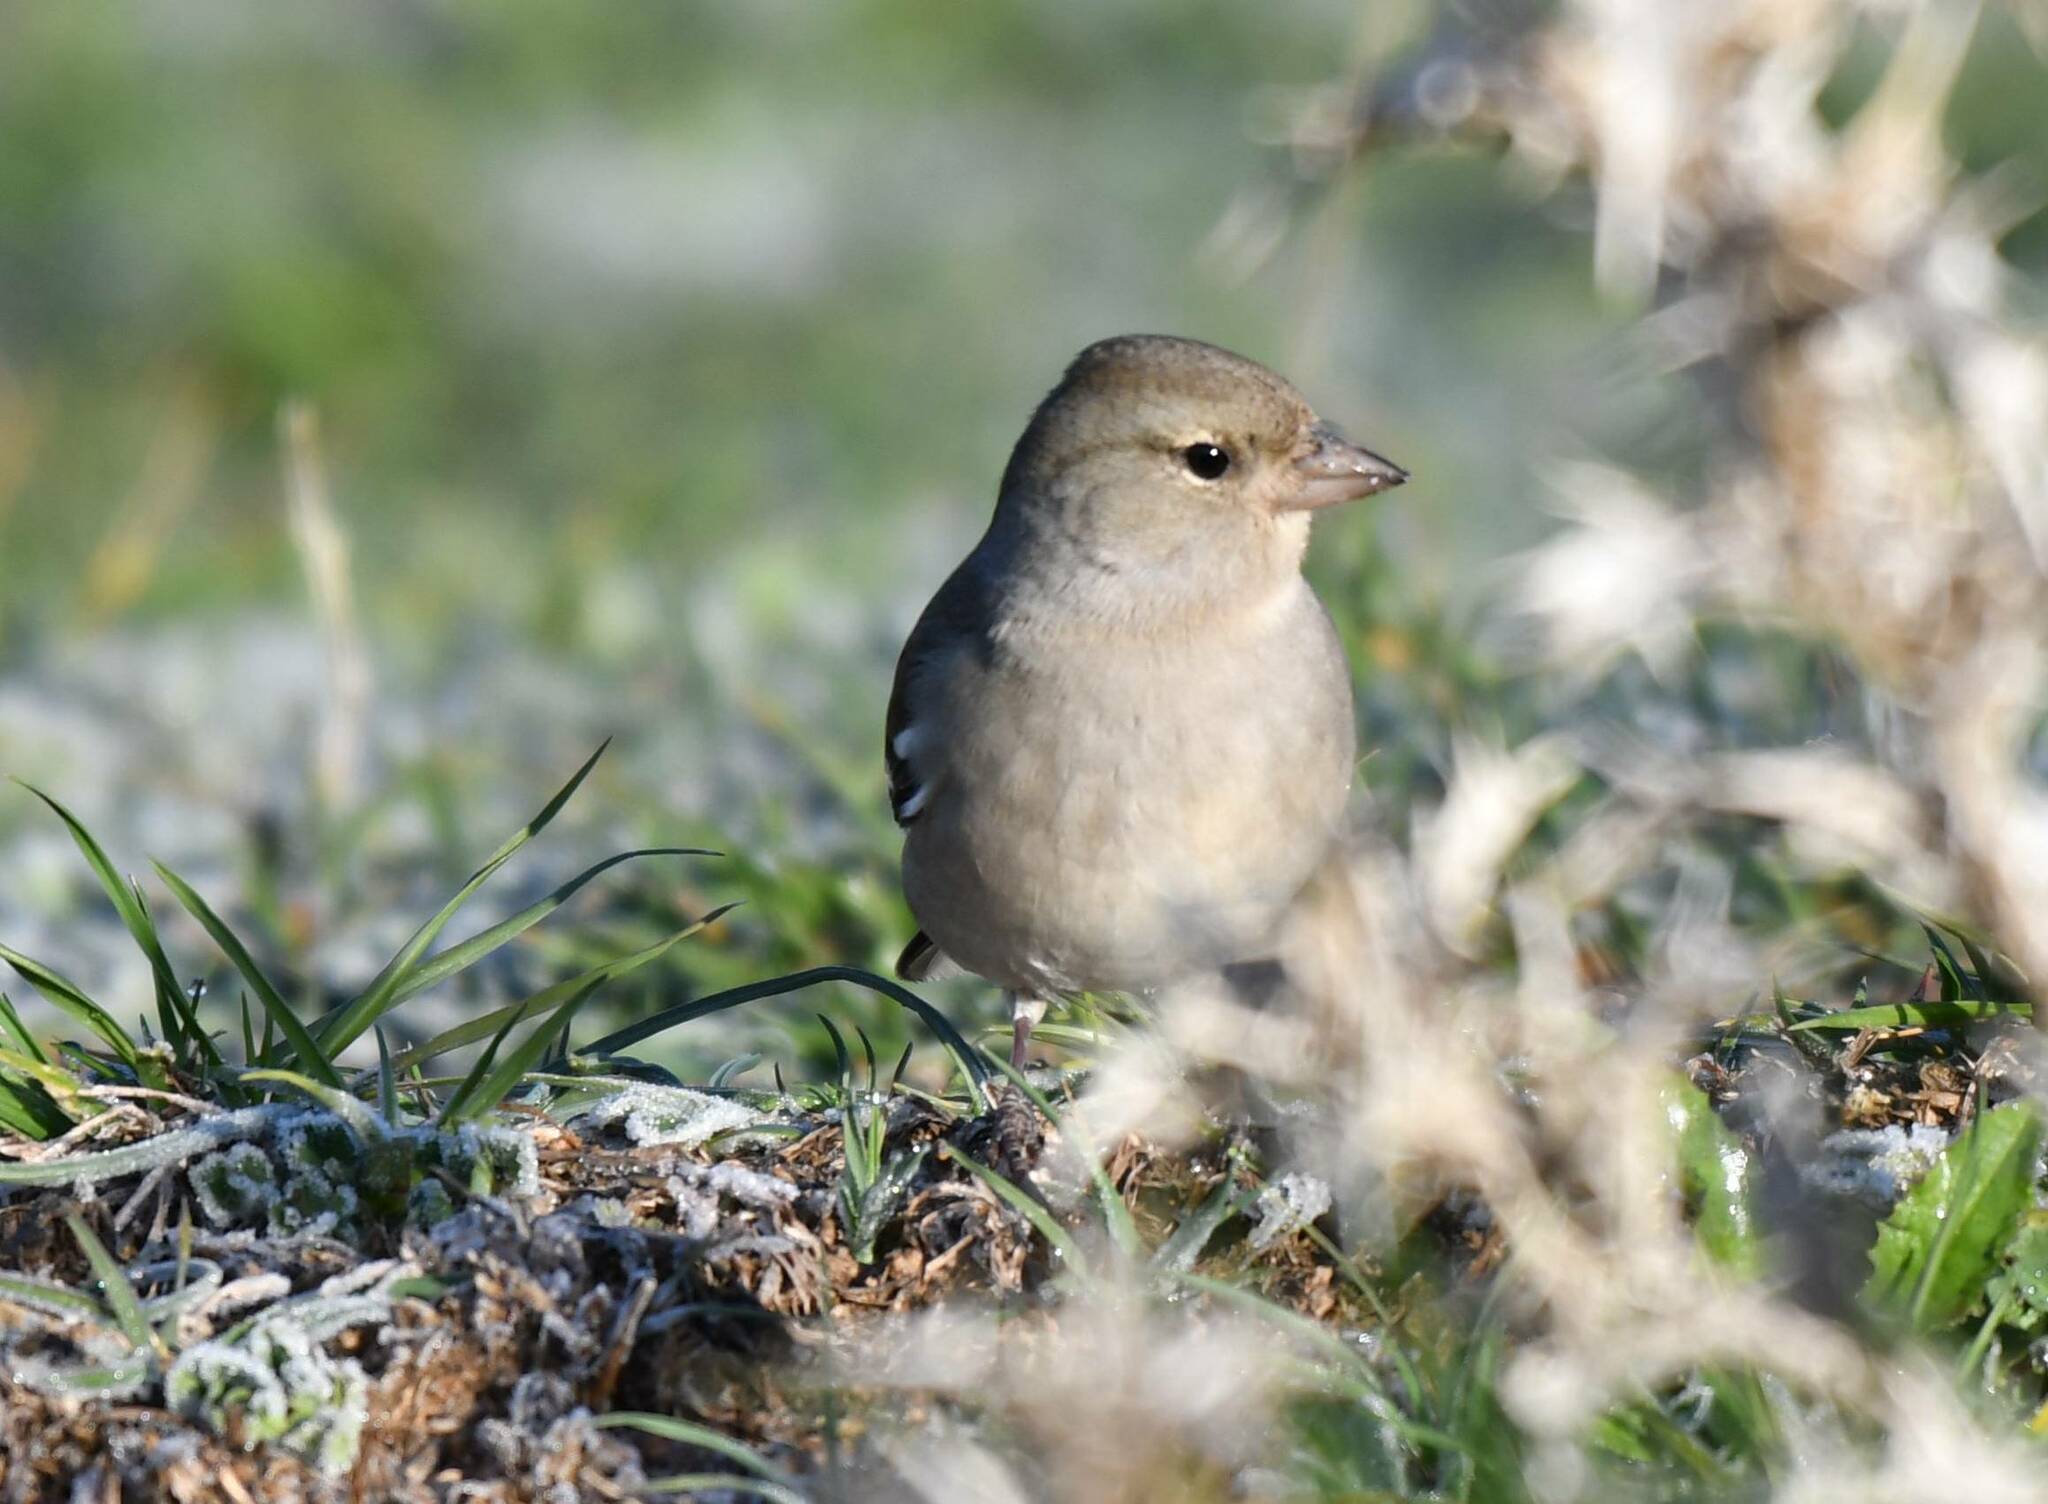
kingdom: Animalia
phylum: Chordata
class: Aves
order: Passeriformes
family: Fringillidae
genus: Fringilla
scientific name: Fringilla spodiogenys
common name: African chaffinch
